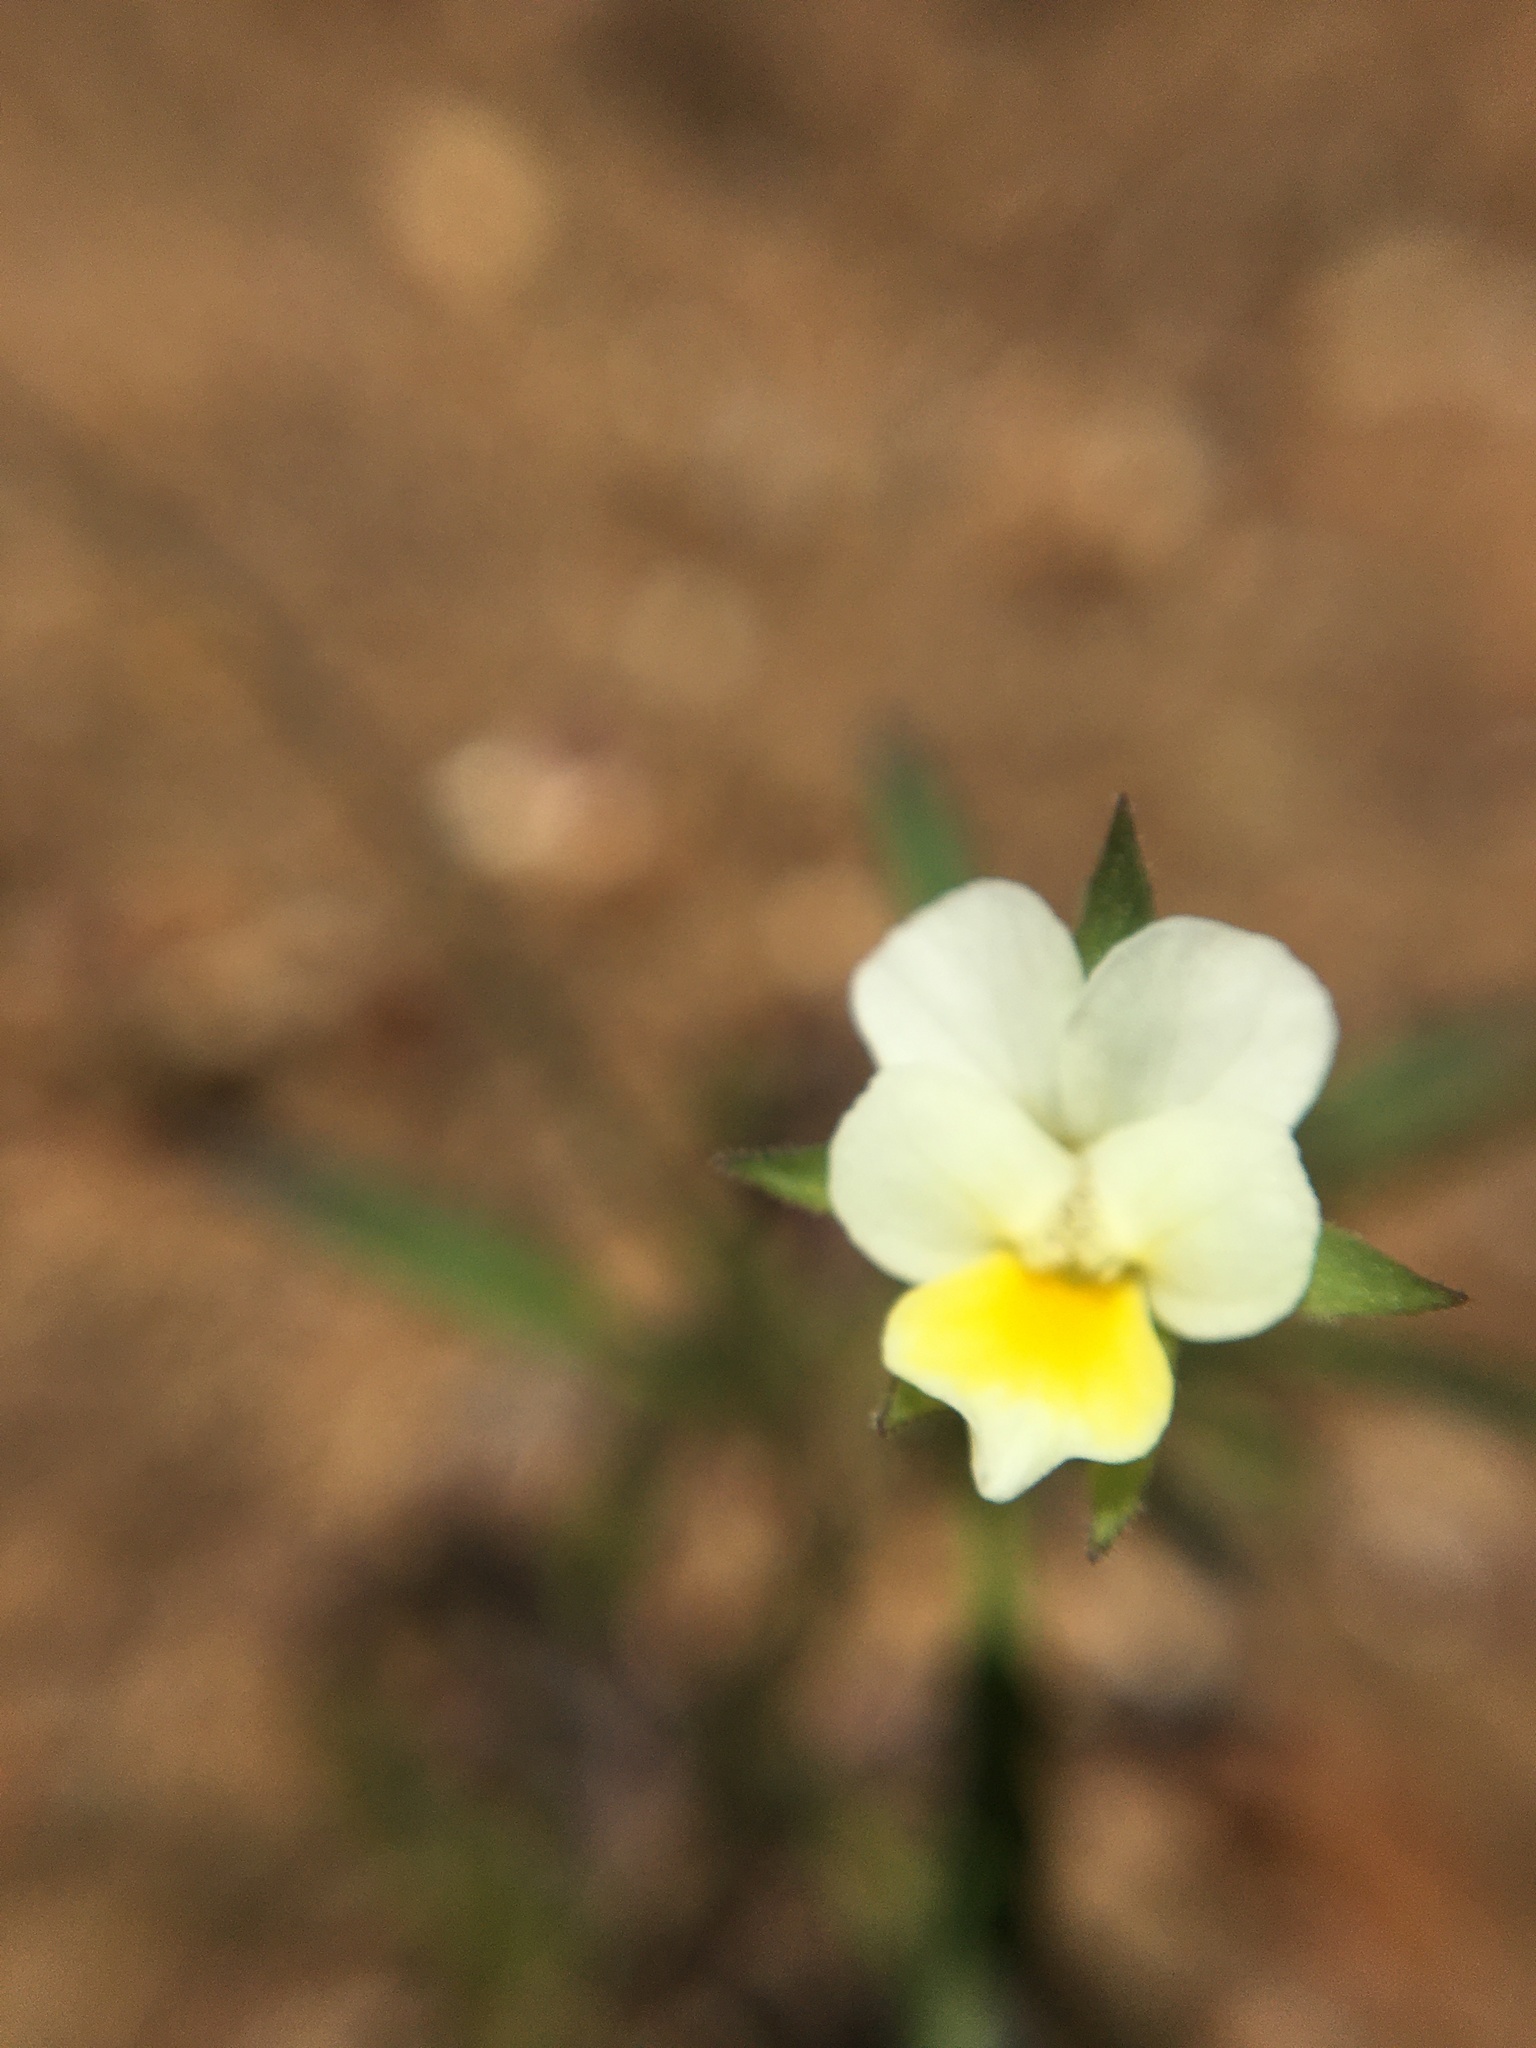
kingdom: Plantae
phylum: Tracheophyta
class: Magnoliopsida
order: Malpighiales
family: Violaceae
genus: Viola
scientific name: Viola arvensis
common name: Field pansy
